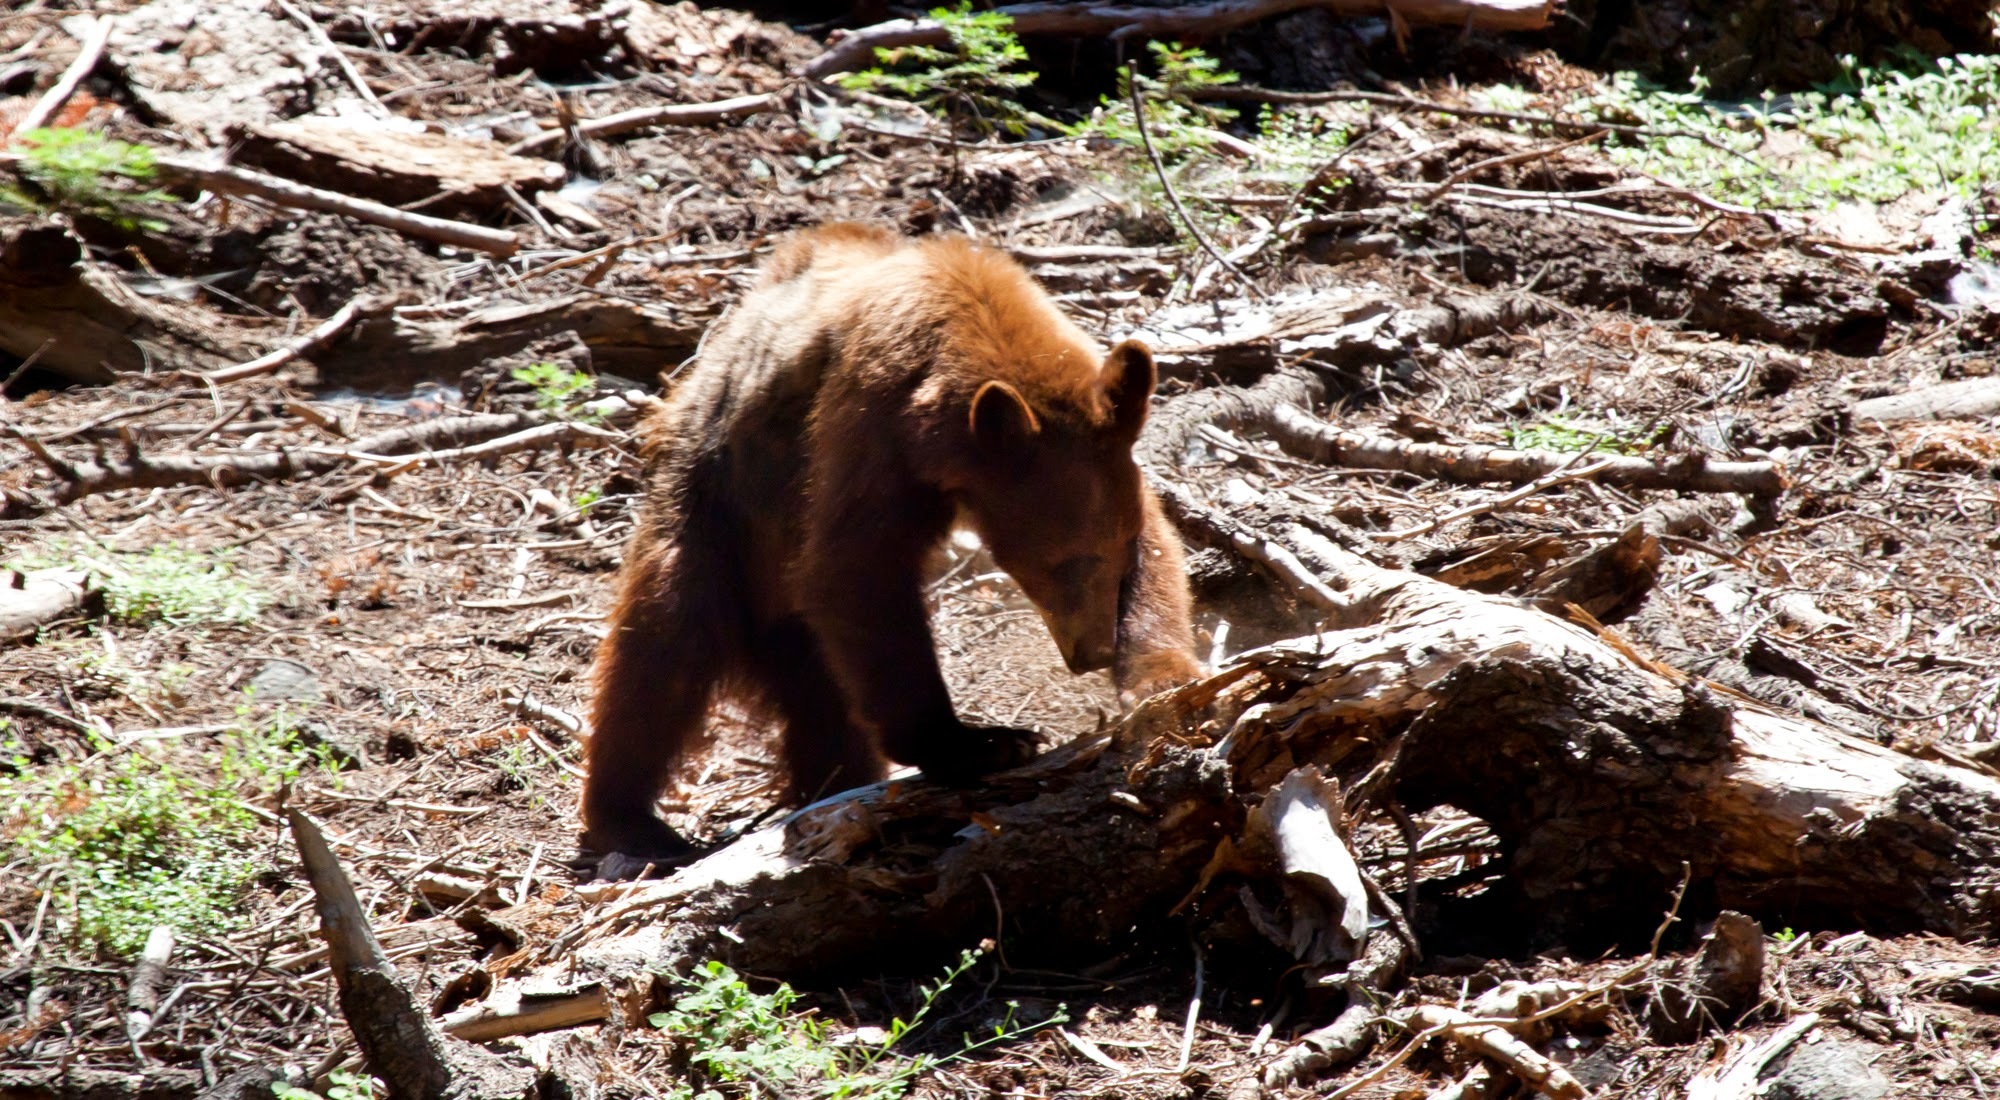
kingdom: Animalia
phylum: Chordata
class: Mammalia
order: Carnivora
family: Ursidae
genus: Ursus
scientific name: Ursus americanus
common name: American black bear
